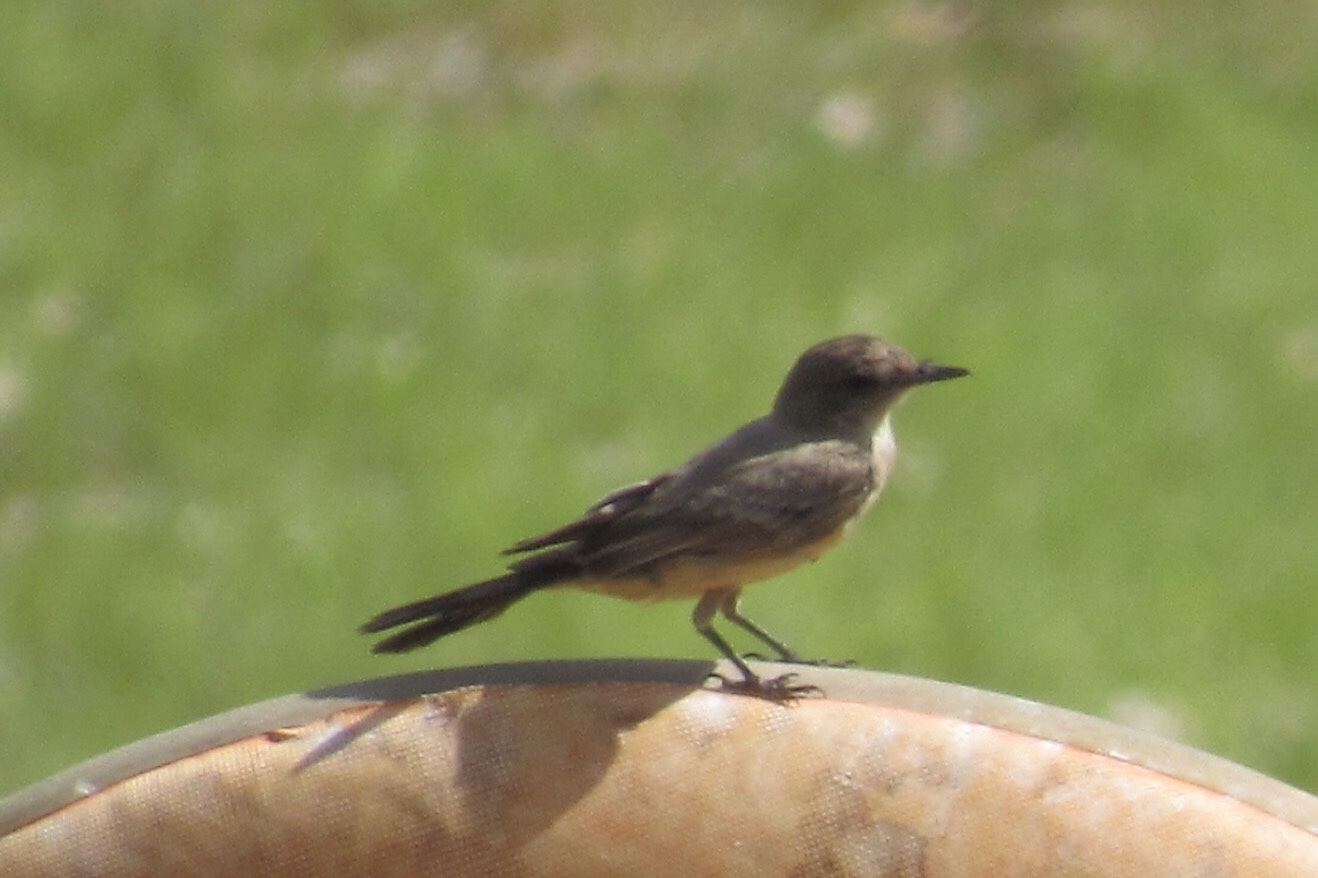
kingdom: Animalia
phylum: Chordata
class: Aves
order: Passeriformes
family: Tyrannidae
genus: Sayornis
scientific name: Sayornis saya
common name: Say's phoebe
